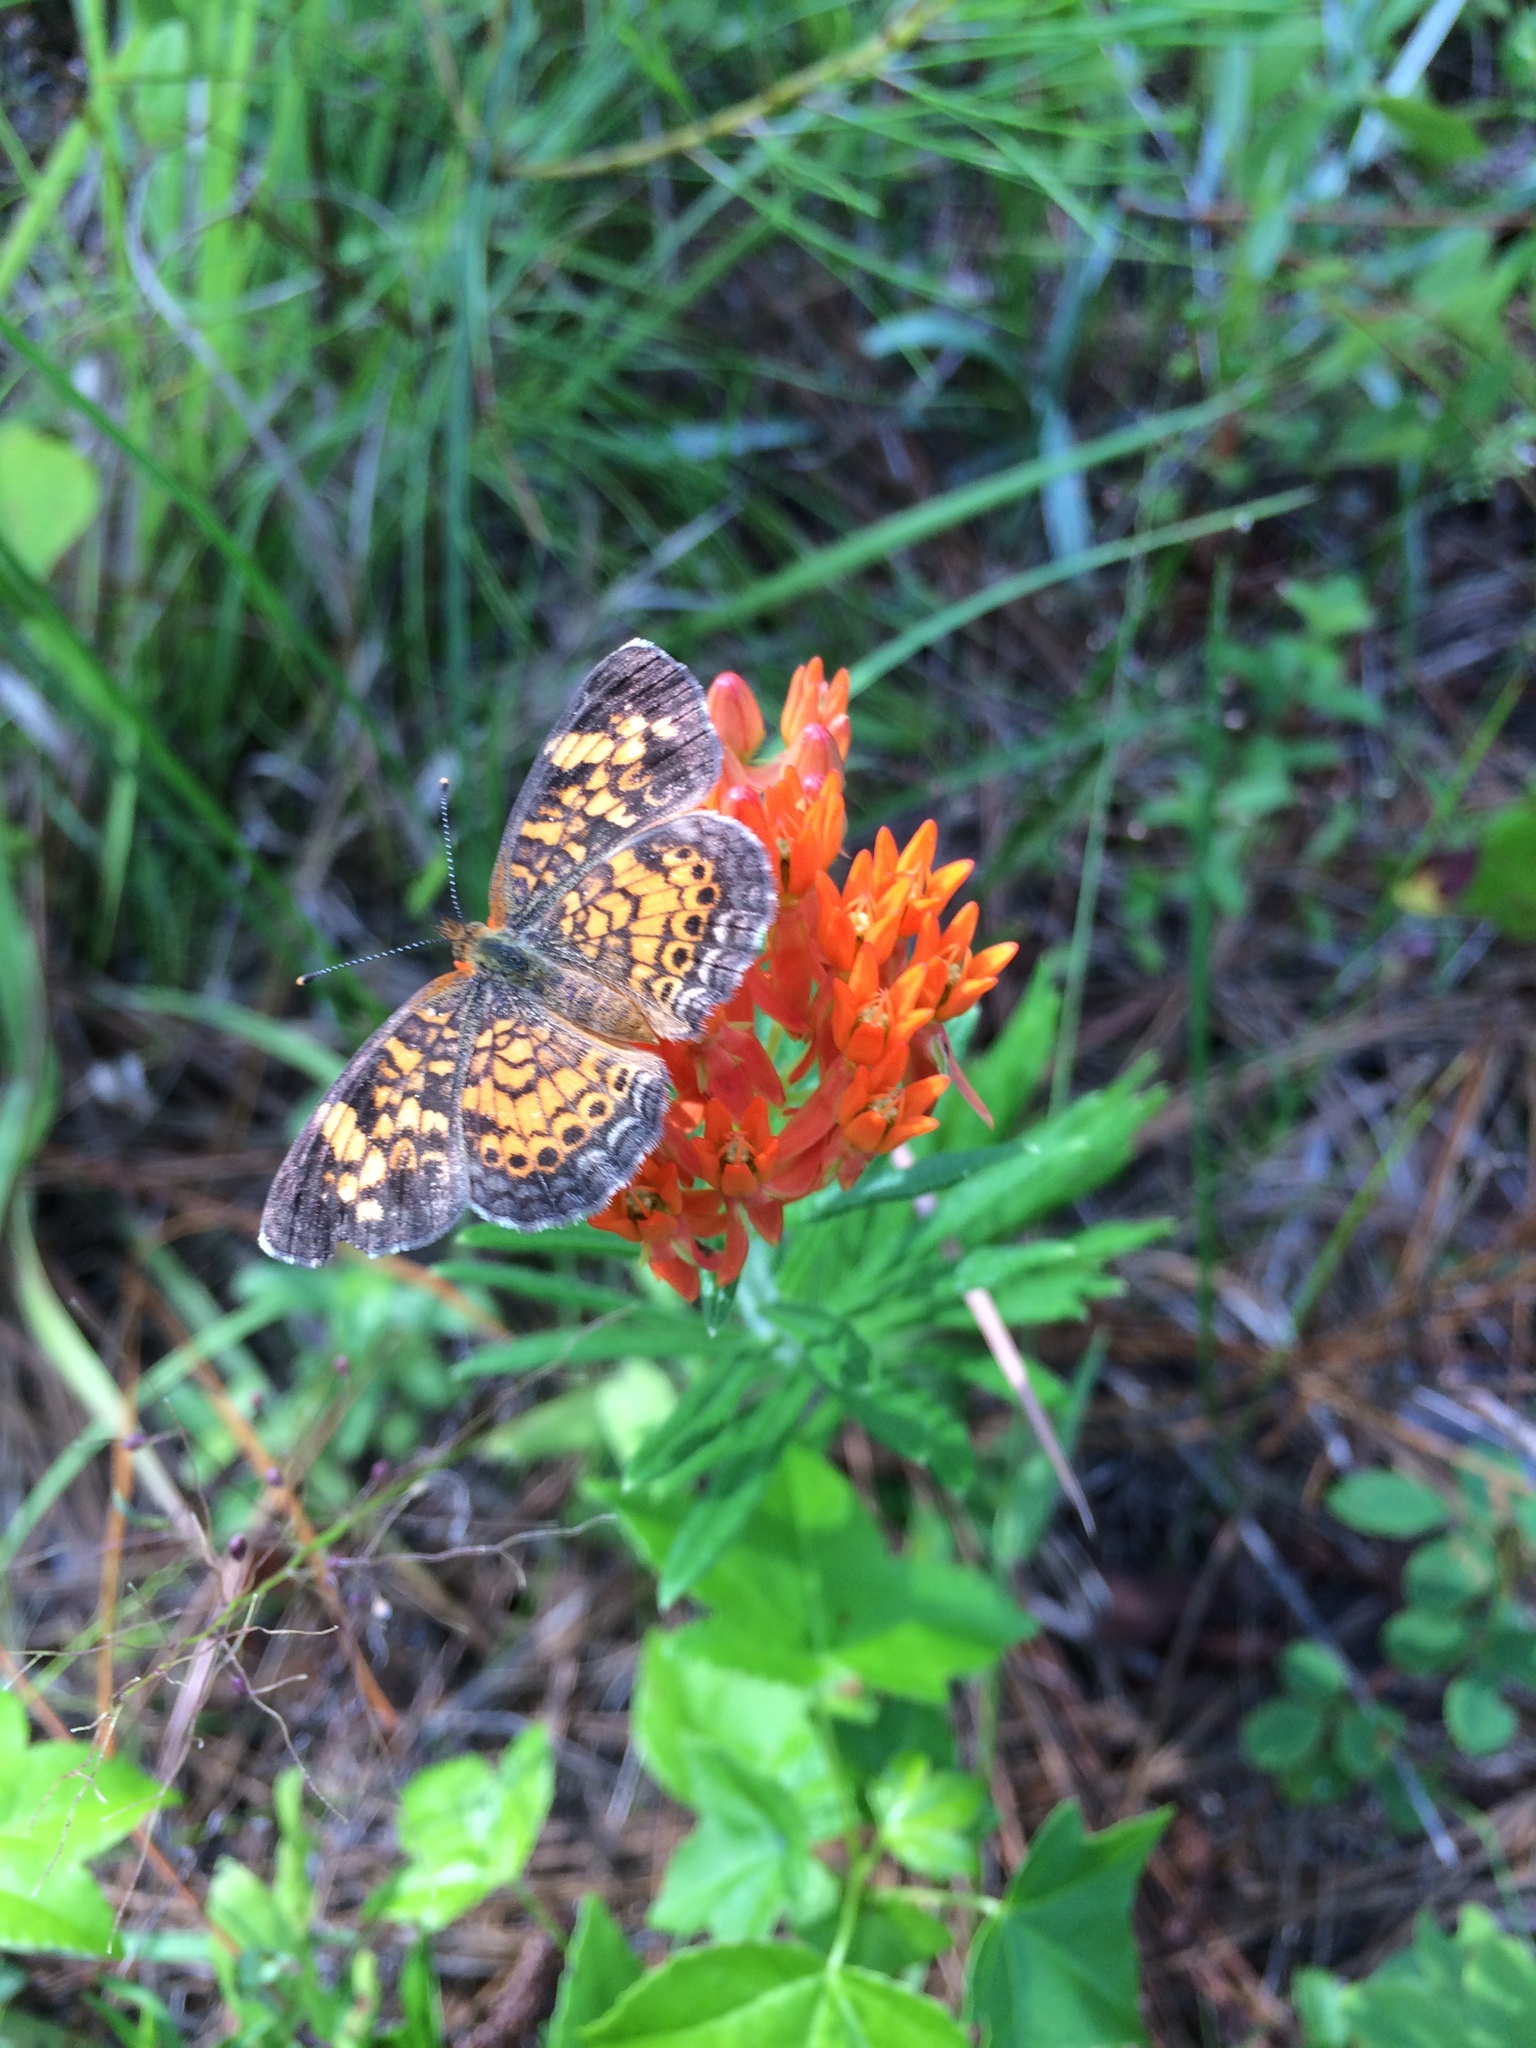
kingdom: Animalia
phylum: Arthropoda
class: Insecta
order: Lepidoptera
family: Nymphalidae
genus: Phyciodes
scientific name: Phyciodes phaon
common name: Phaon crescent
